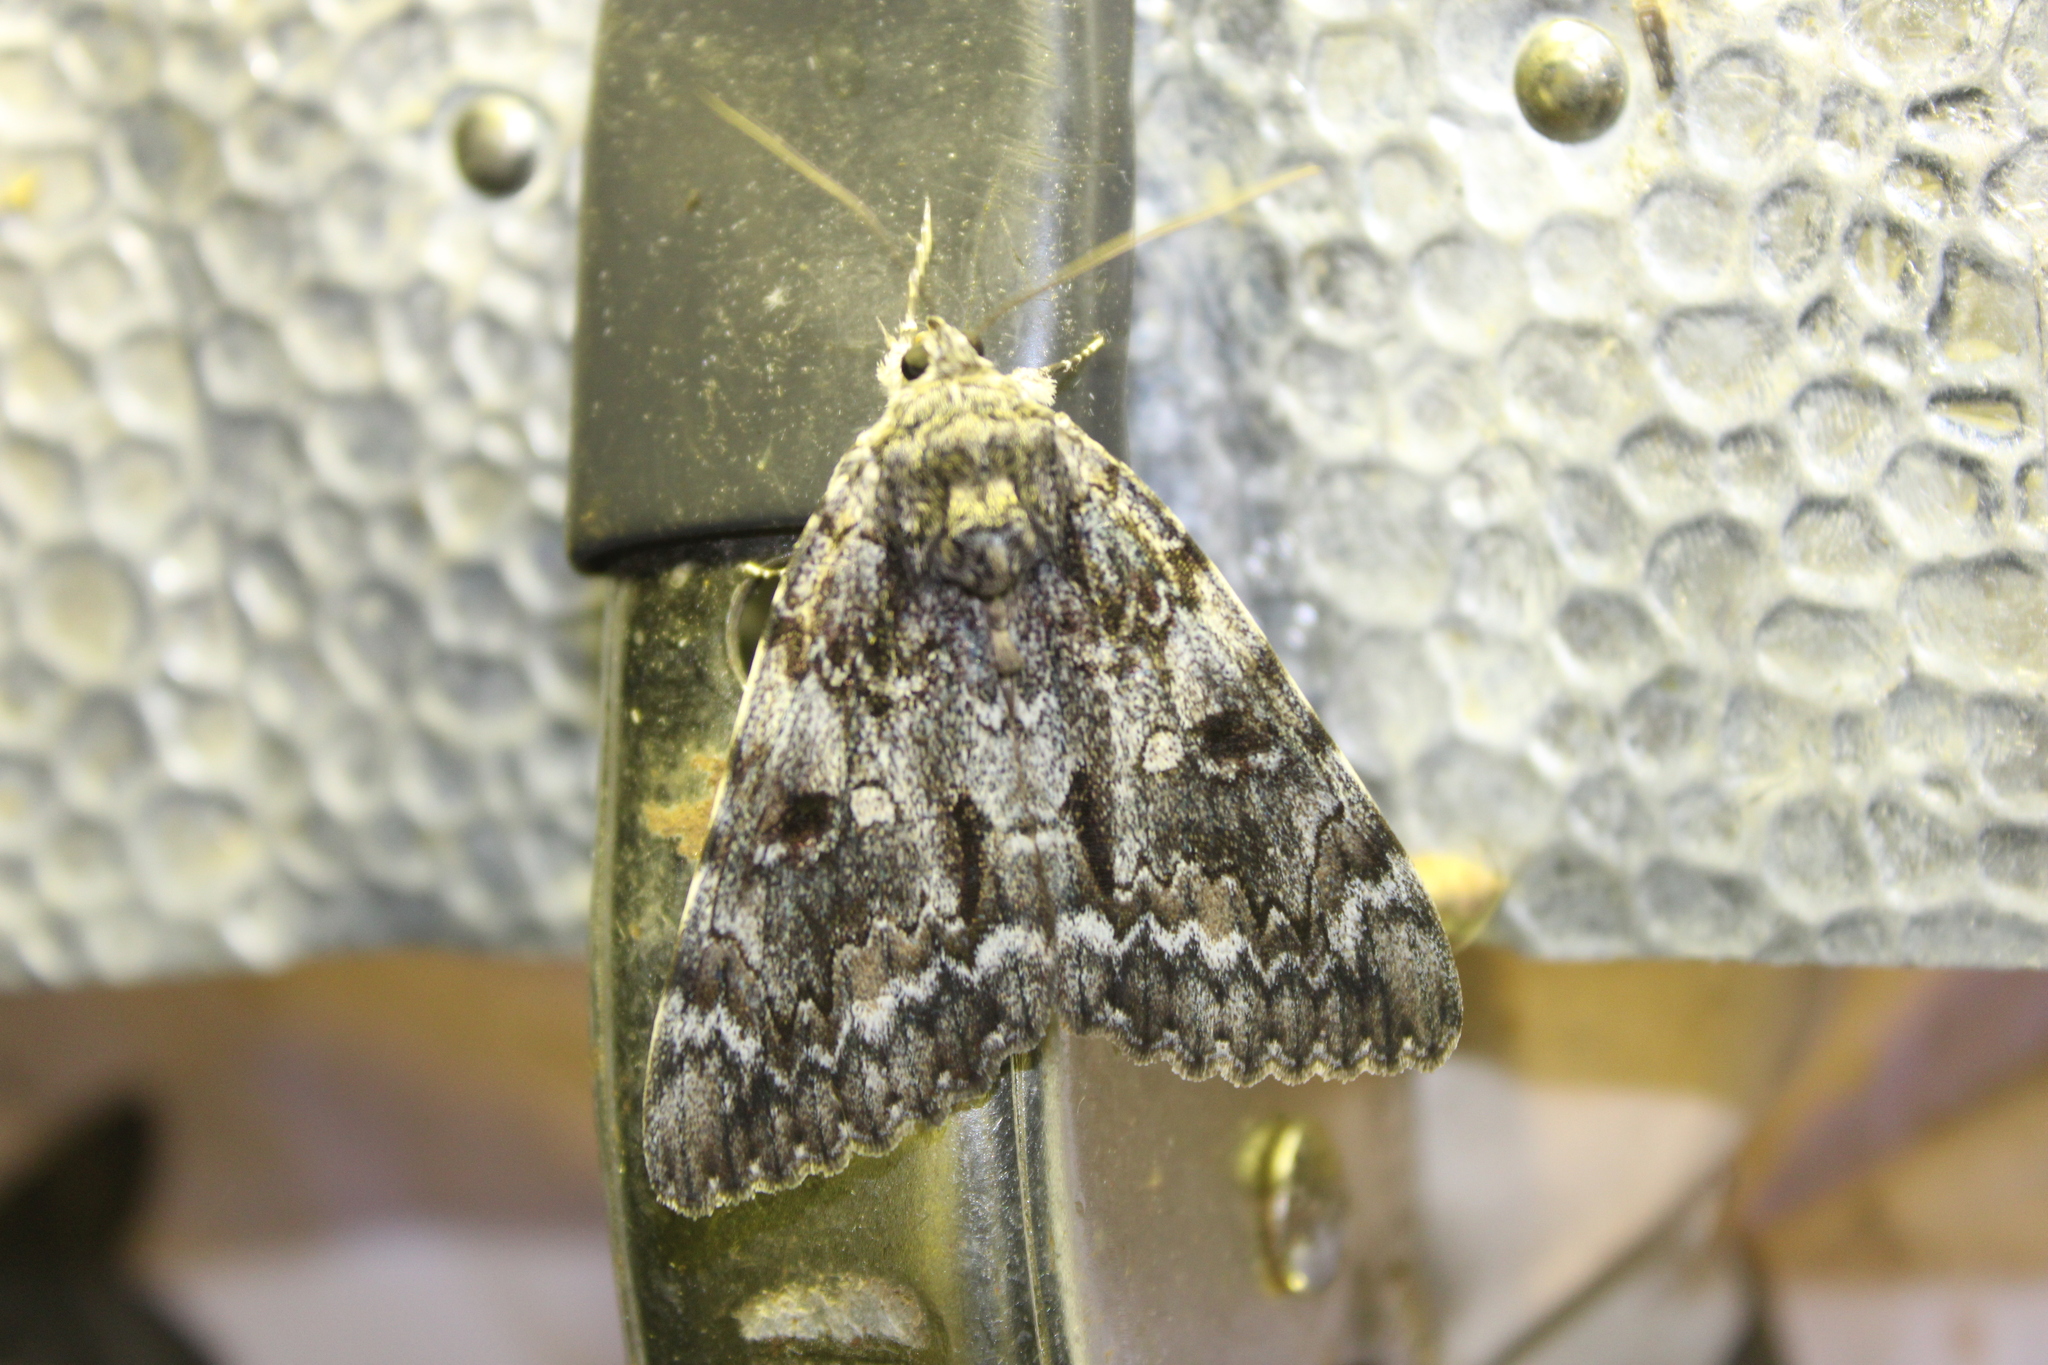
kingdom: Animalia
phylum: Arthropoda
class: Insecta
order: Lepidoptera
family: Erebidae
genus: Catocala
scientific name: Catocala palaeogama
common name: Oldwife underwing
